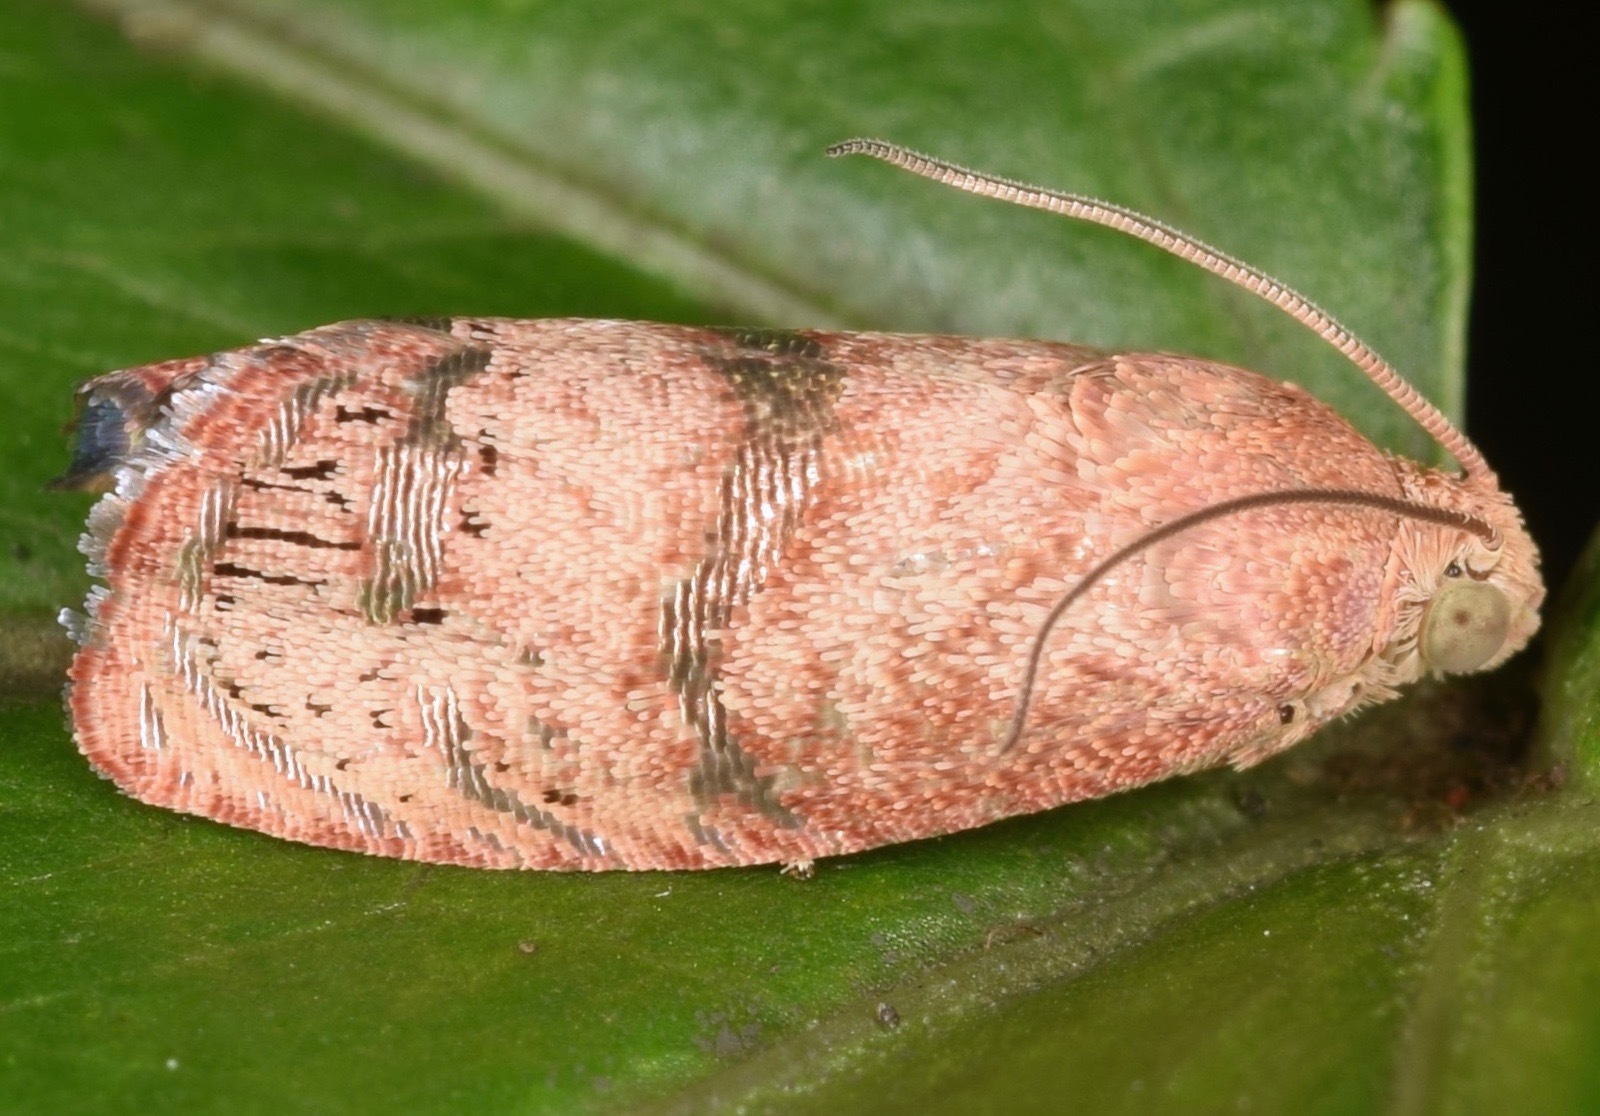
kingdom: Animalia
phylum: Arthropoda
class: Insecta
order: Lepidoptera
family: Tortricidae
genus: Cydia
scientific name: Cydia latiferreana
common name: Filbertworm moth
